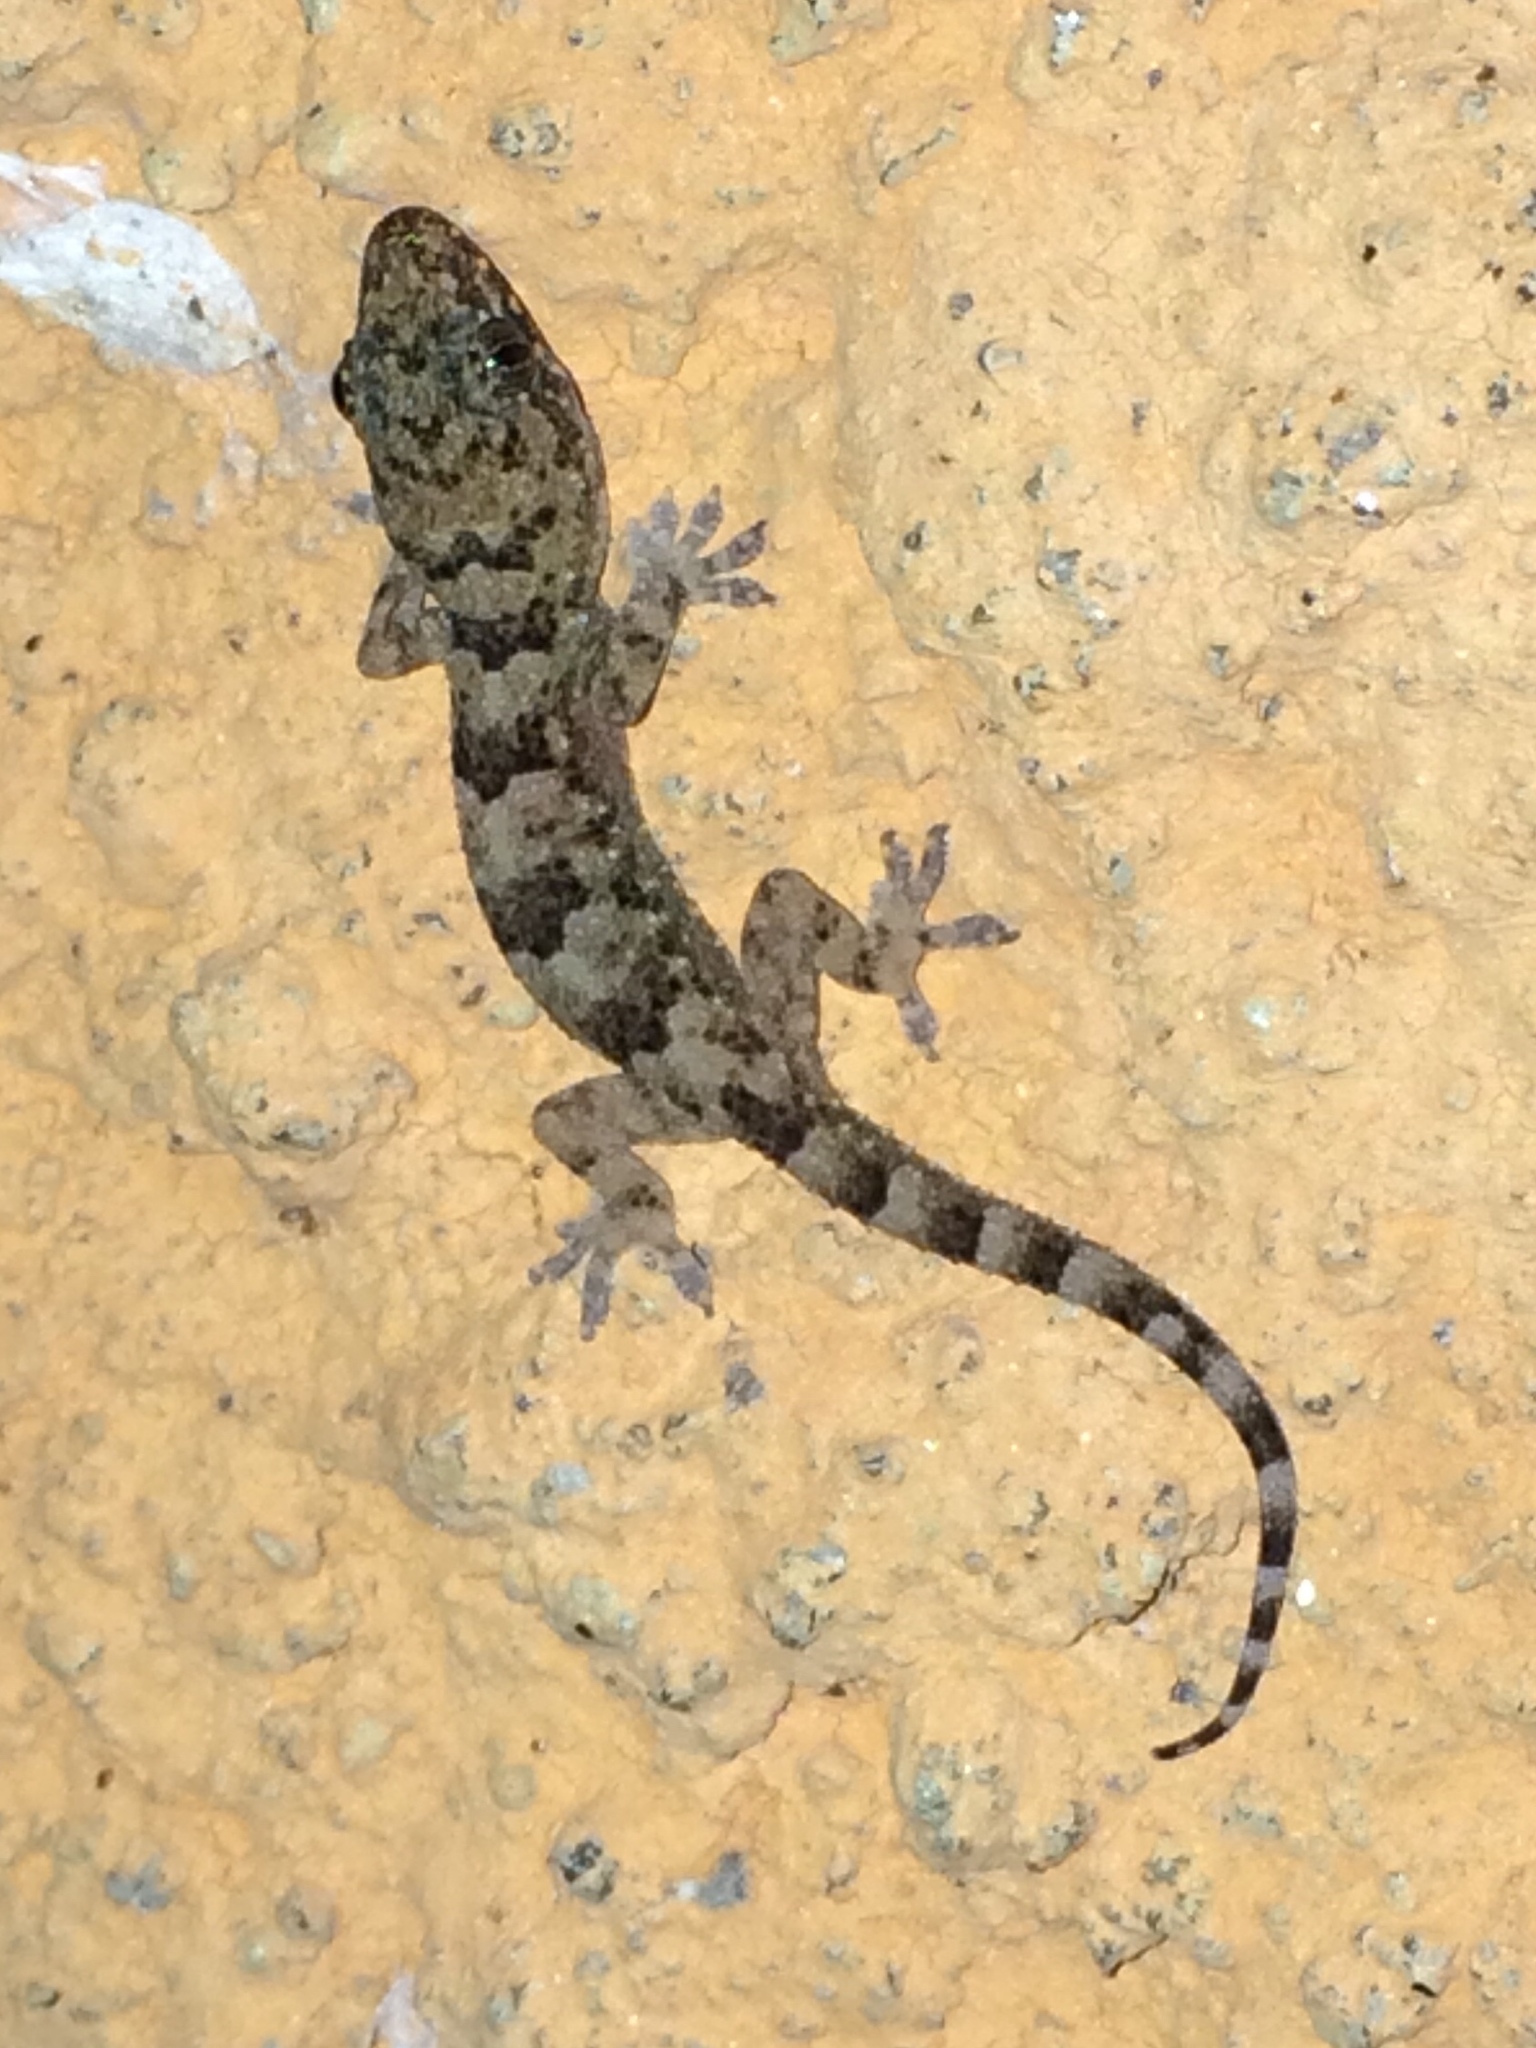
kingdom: Animalia
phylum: Chordata
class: Squamata
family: Gekkonidae
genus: Hemidactylus
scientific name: Hemidactylus mabouia
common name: House gecko
